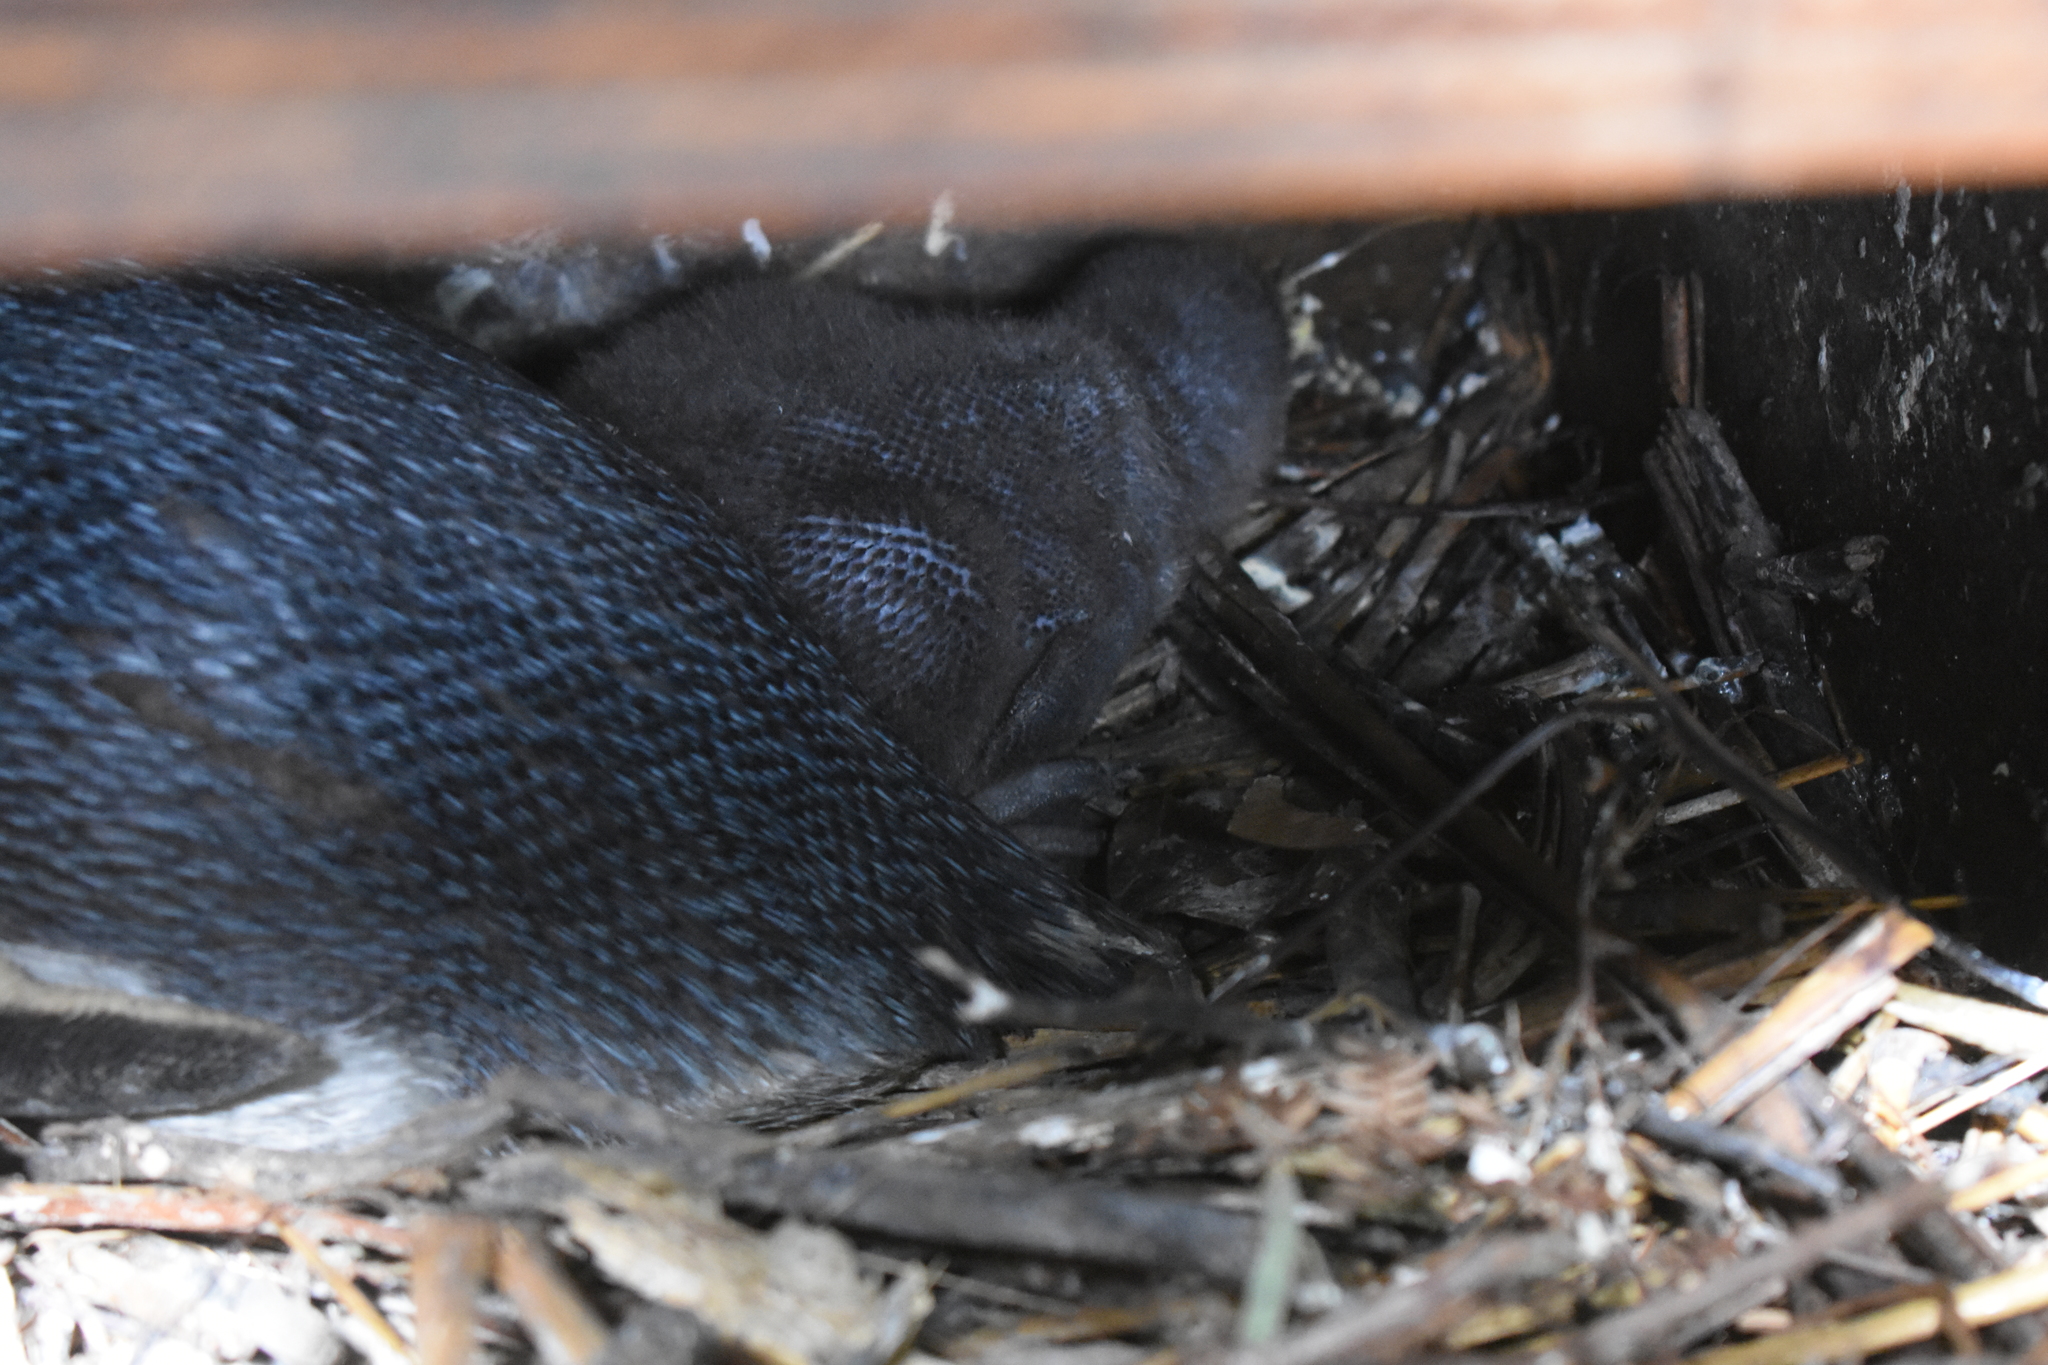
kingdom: Animalia
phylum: Chordata
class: Aves
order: Sphenisciformes
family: Spheniscidae
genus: Eudyptula
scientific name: Eudyptula minor
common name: Little penguin
